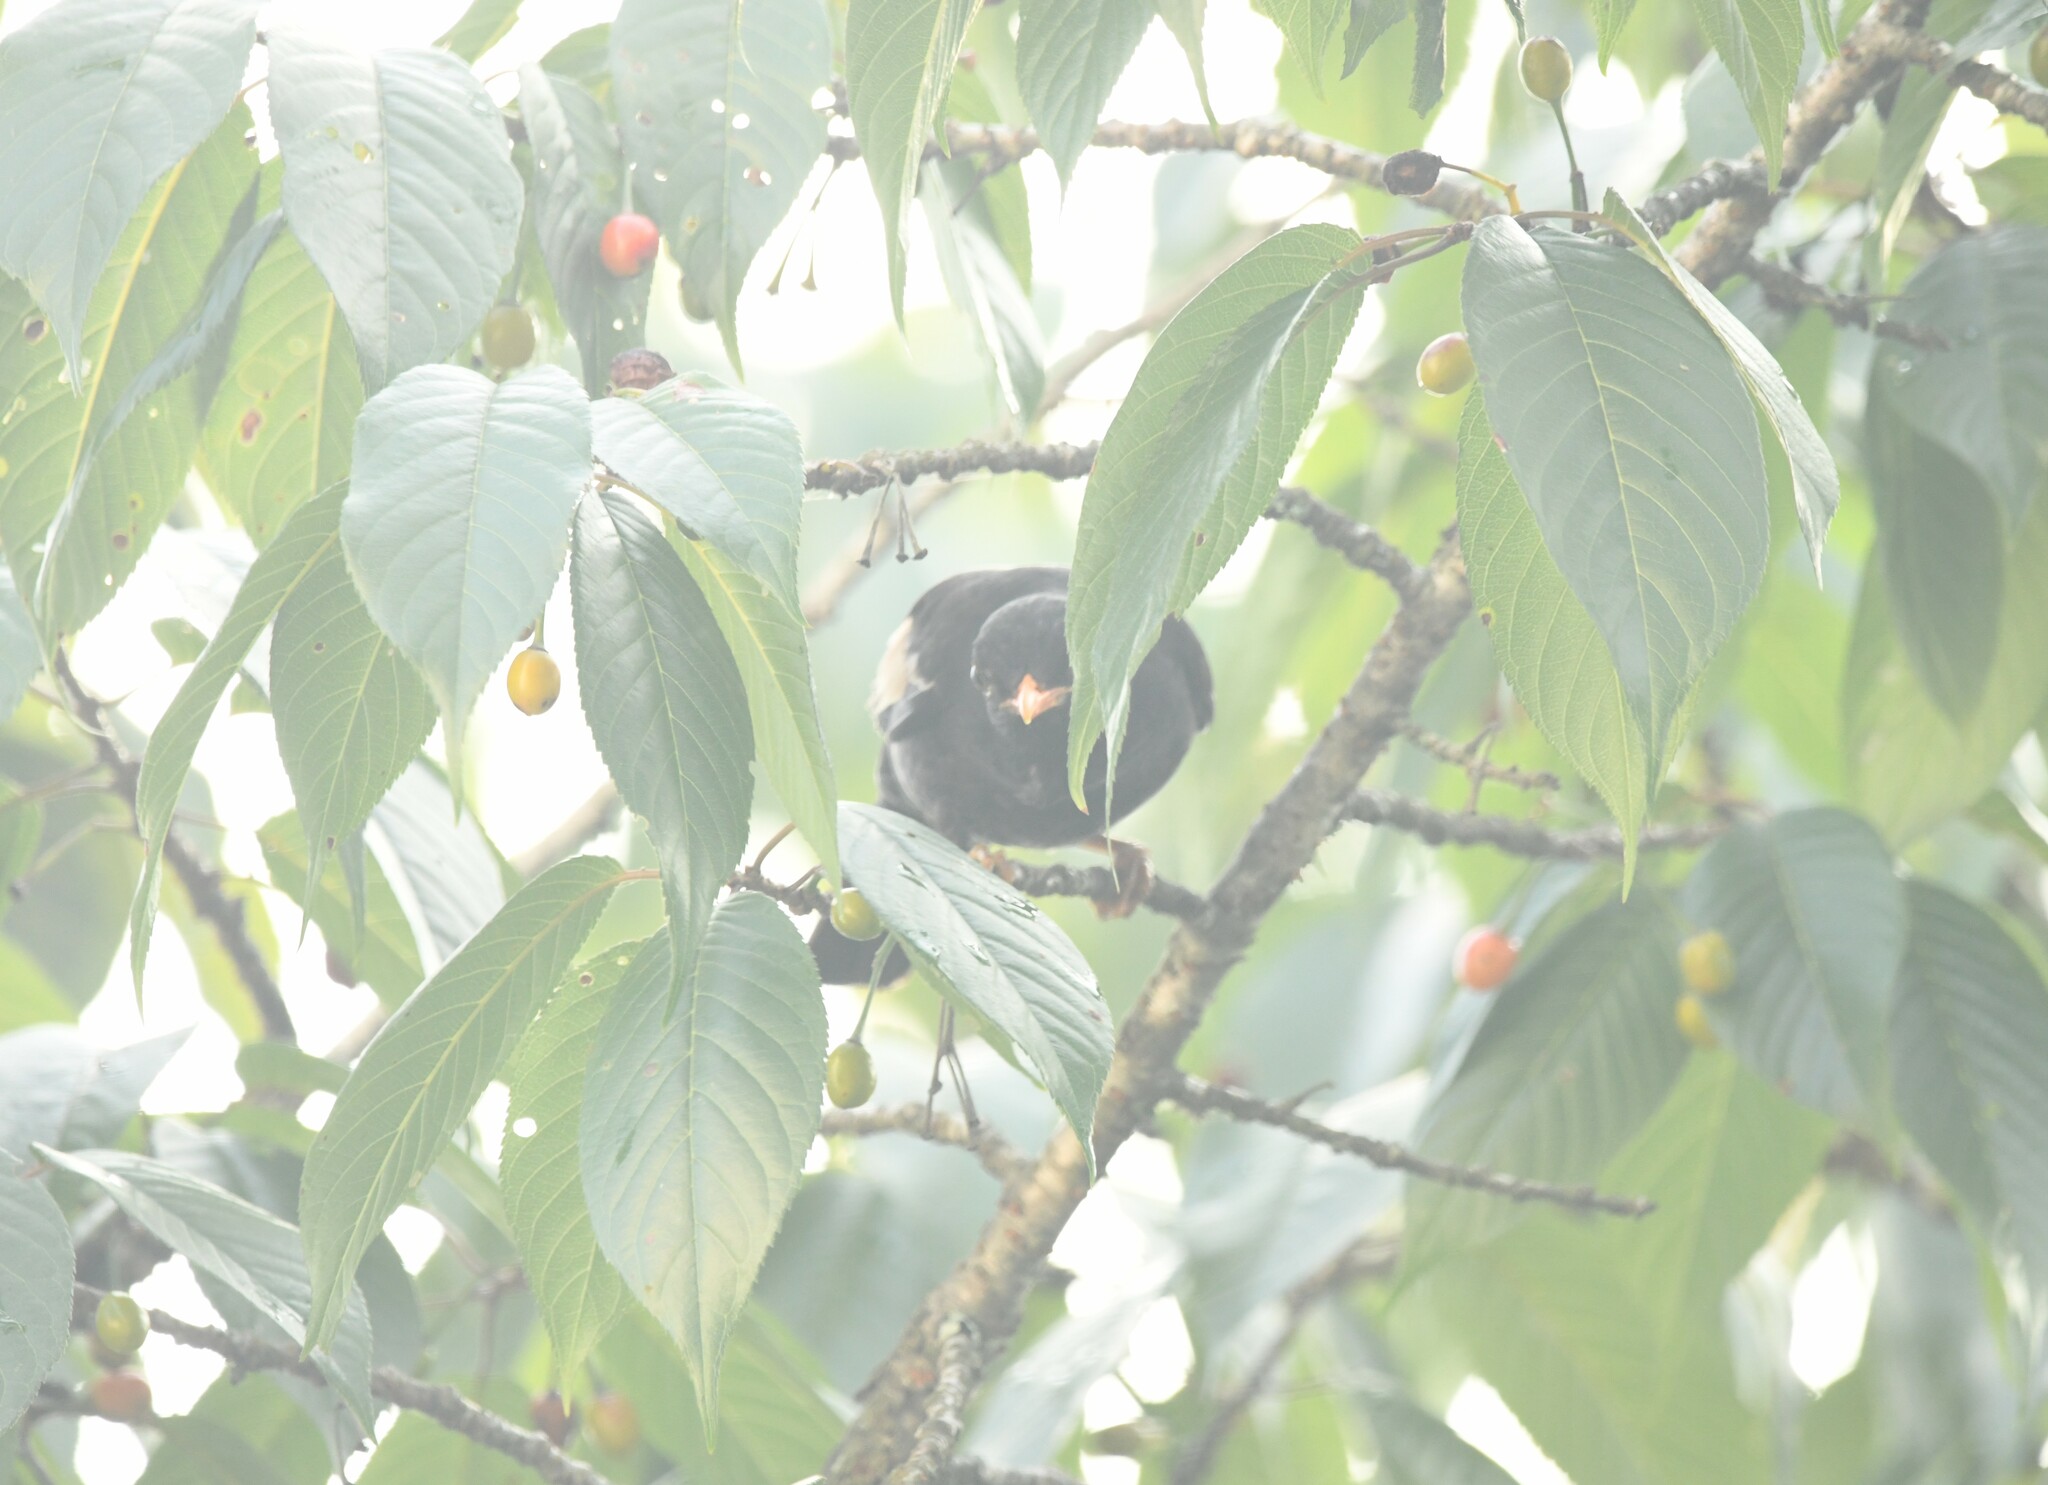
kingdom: Animalia
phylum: Chordata
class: Aves
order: Passeriformes
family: Turdidae
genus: Turdus
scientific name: Turdus boulboul
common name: Grey-winged blackbird
